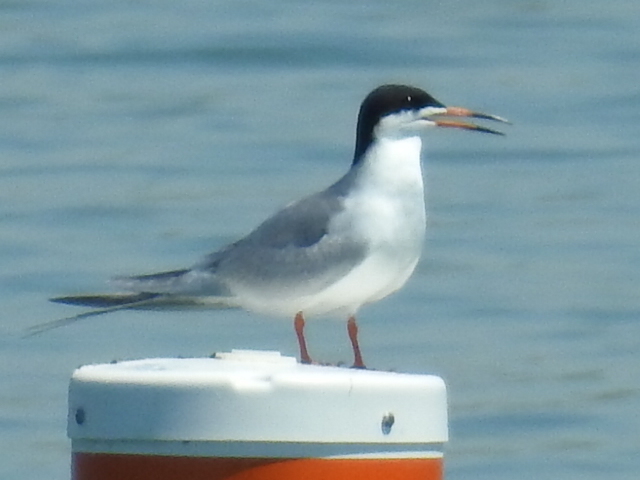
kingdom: Animalia
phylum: Chordata
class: Aves
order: Charadriiformes
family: Laridae
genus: Sterna
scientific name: Sterna forsteri
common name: Forster's tern
